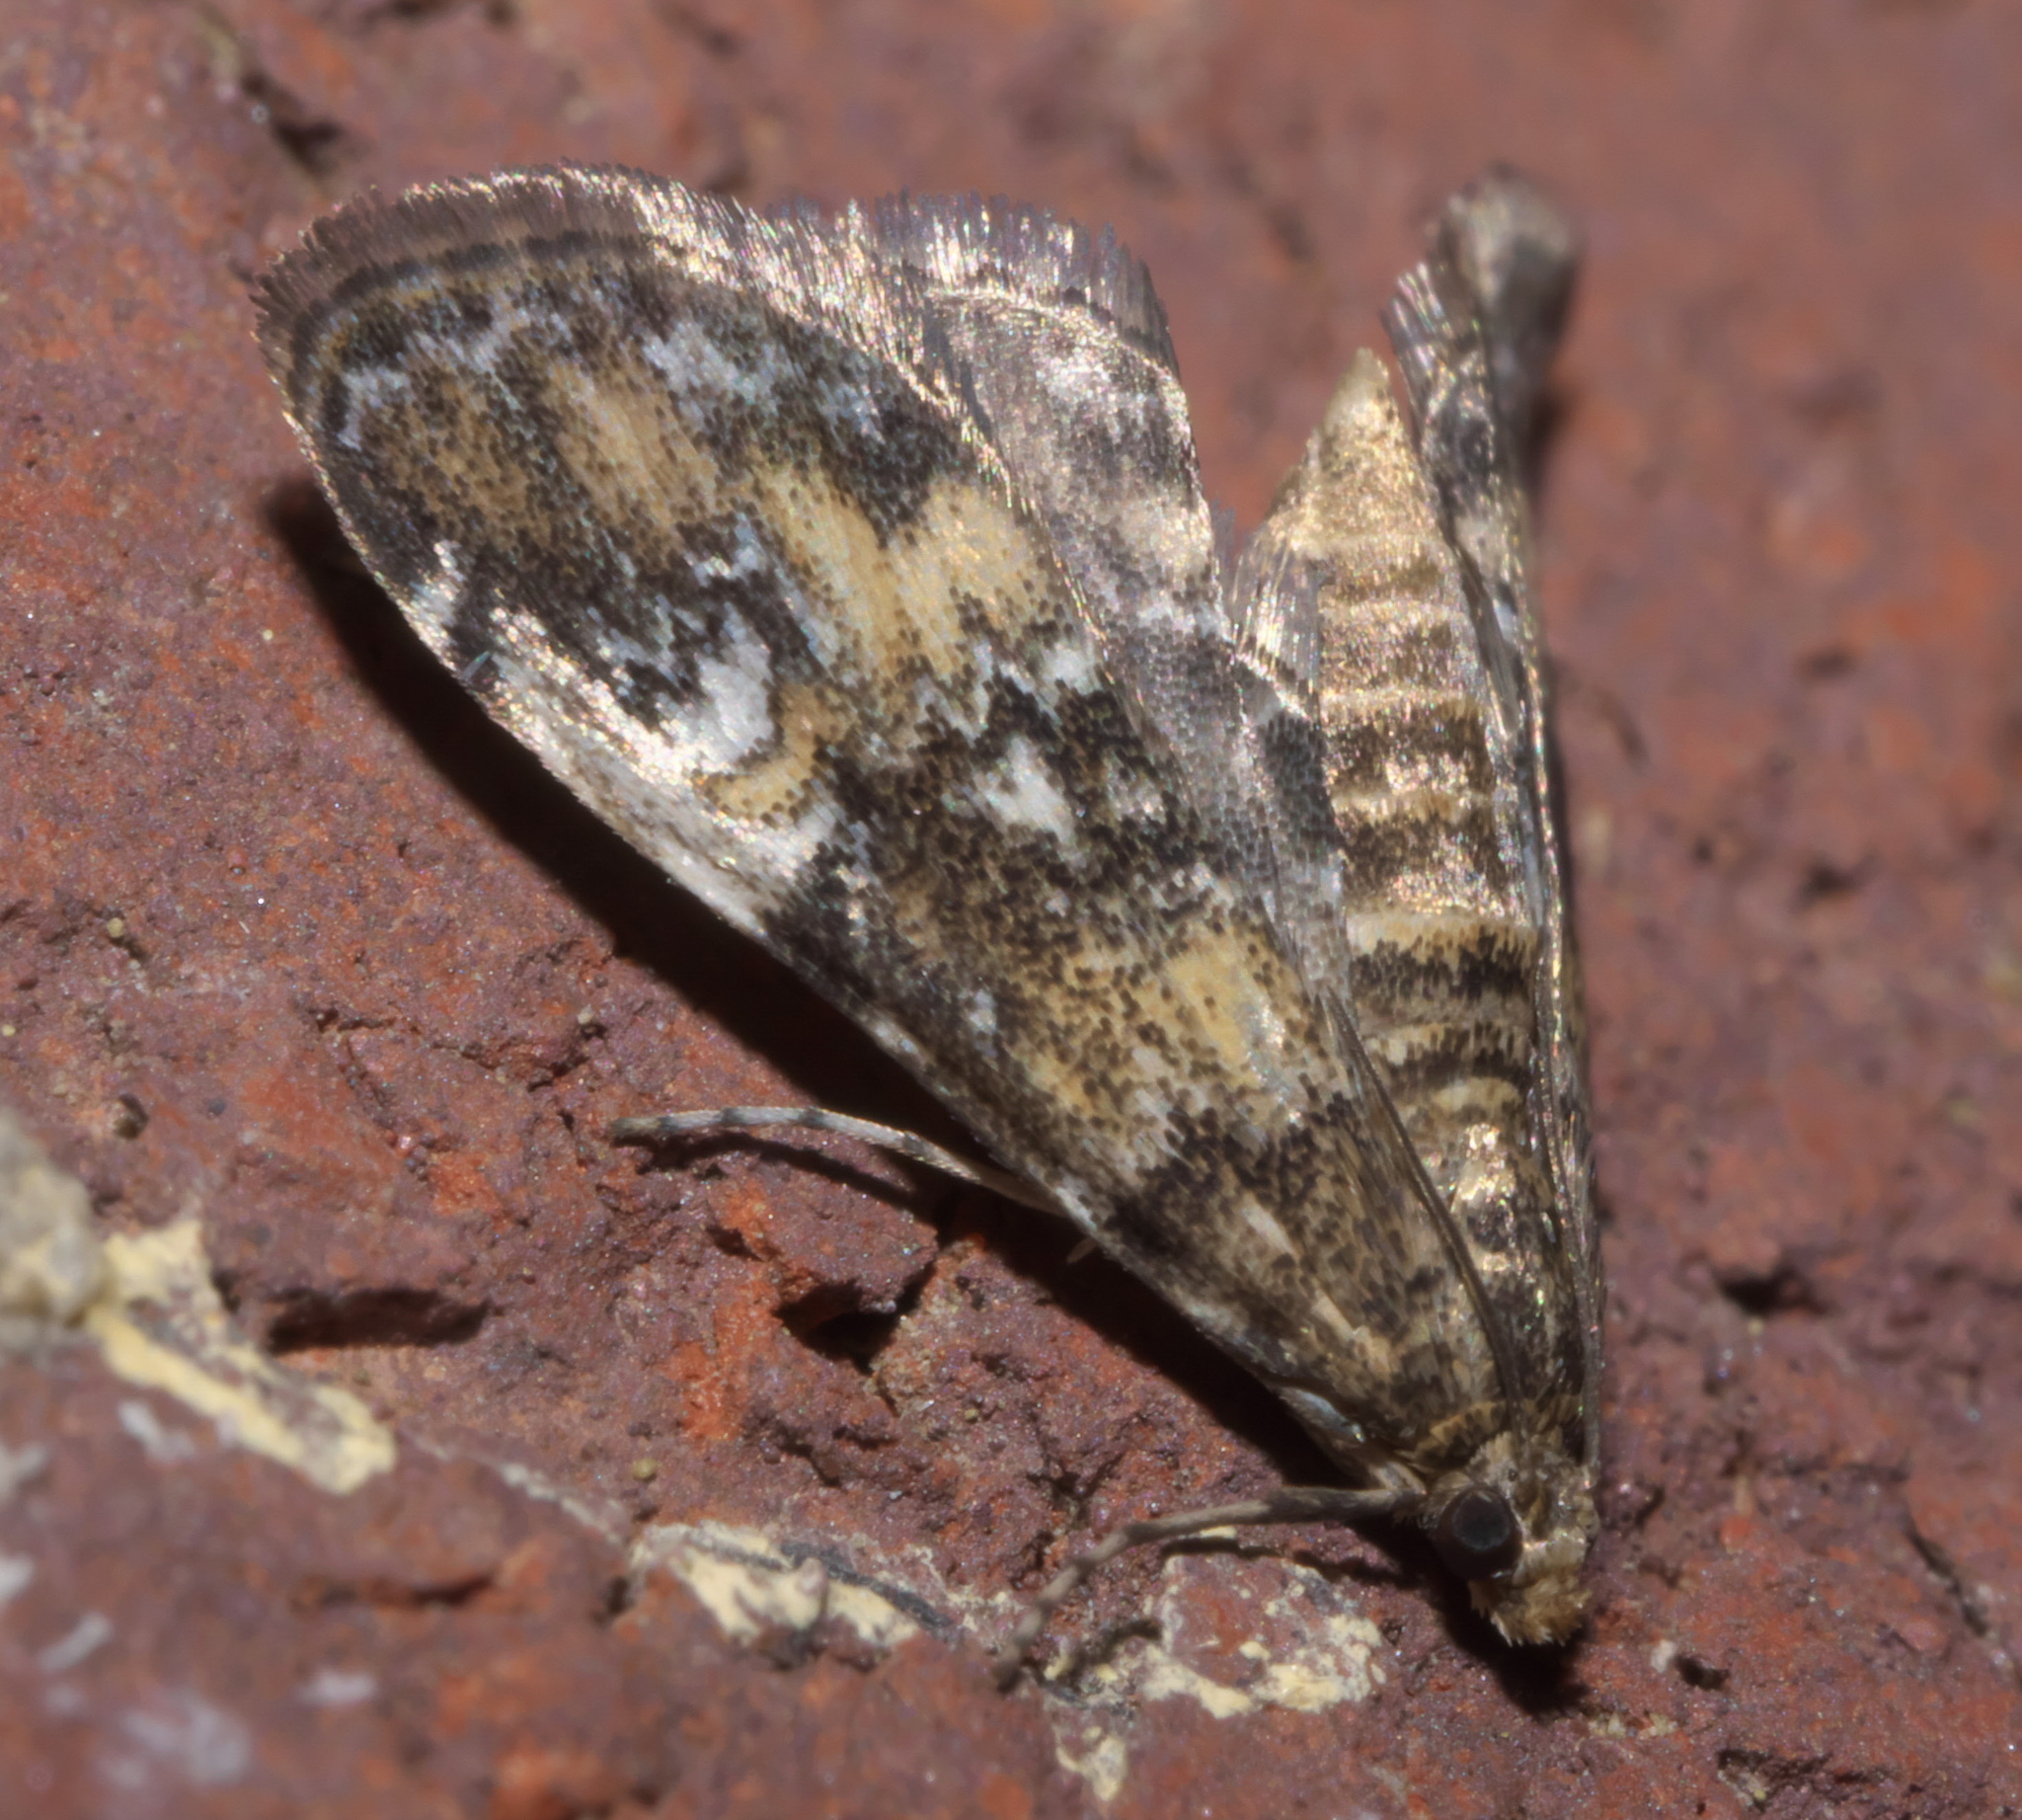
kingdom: Animalia
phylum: Arthropoda
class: Insecta
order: Lepidoptera
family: Crambidae
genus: Elophila
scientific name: Elophila obliteralis
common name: Waterlily leafcutter moth
